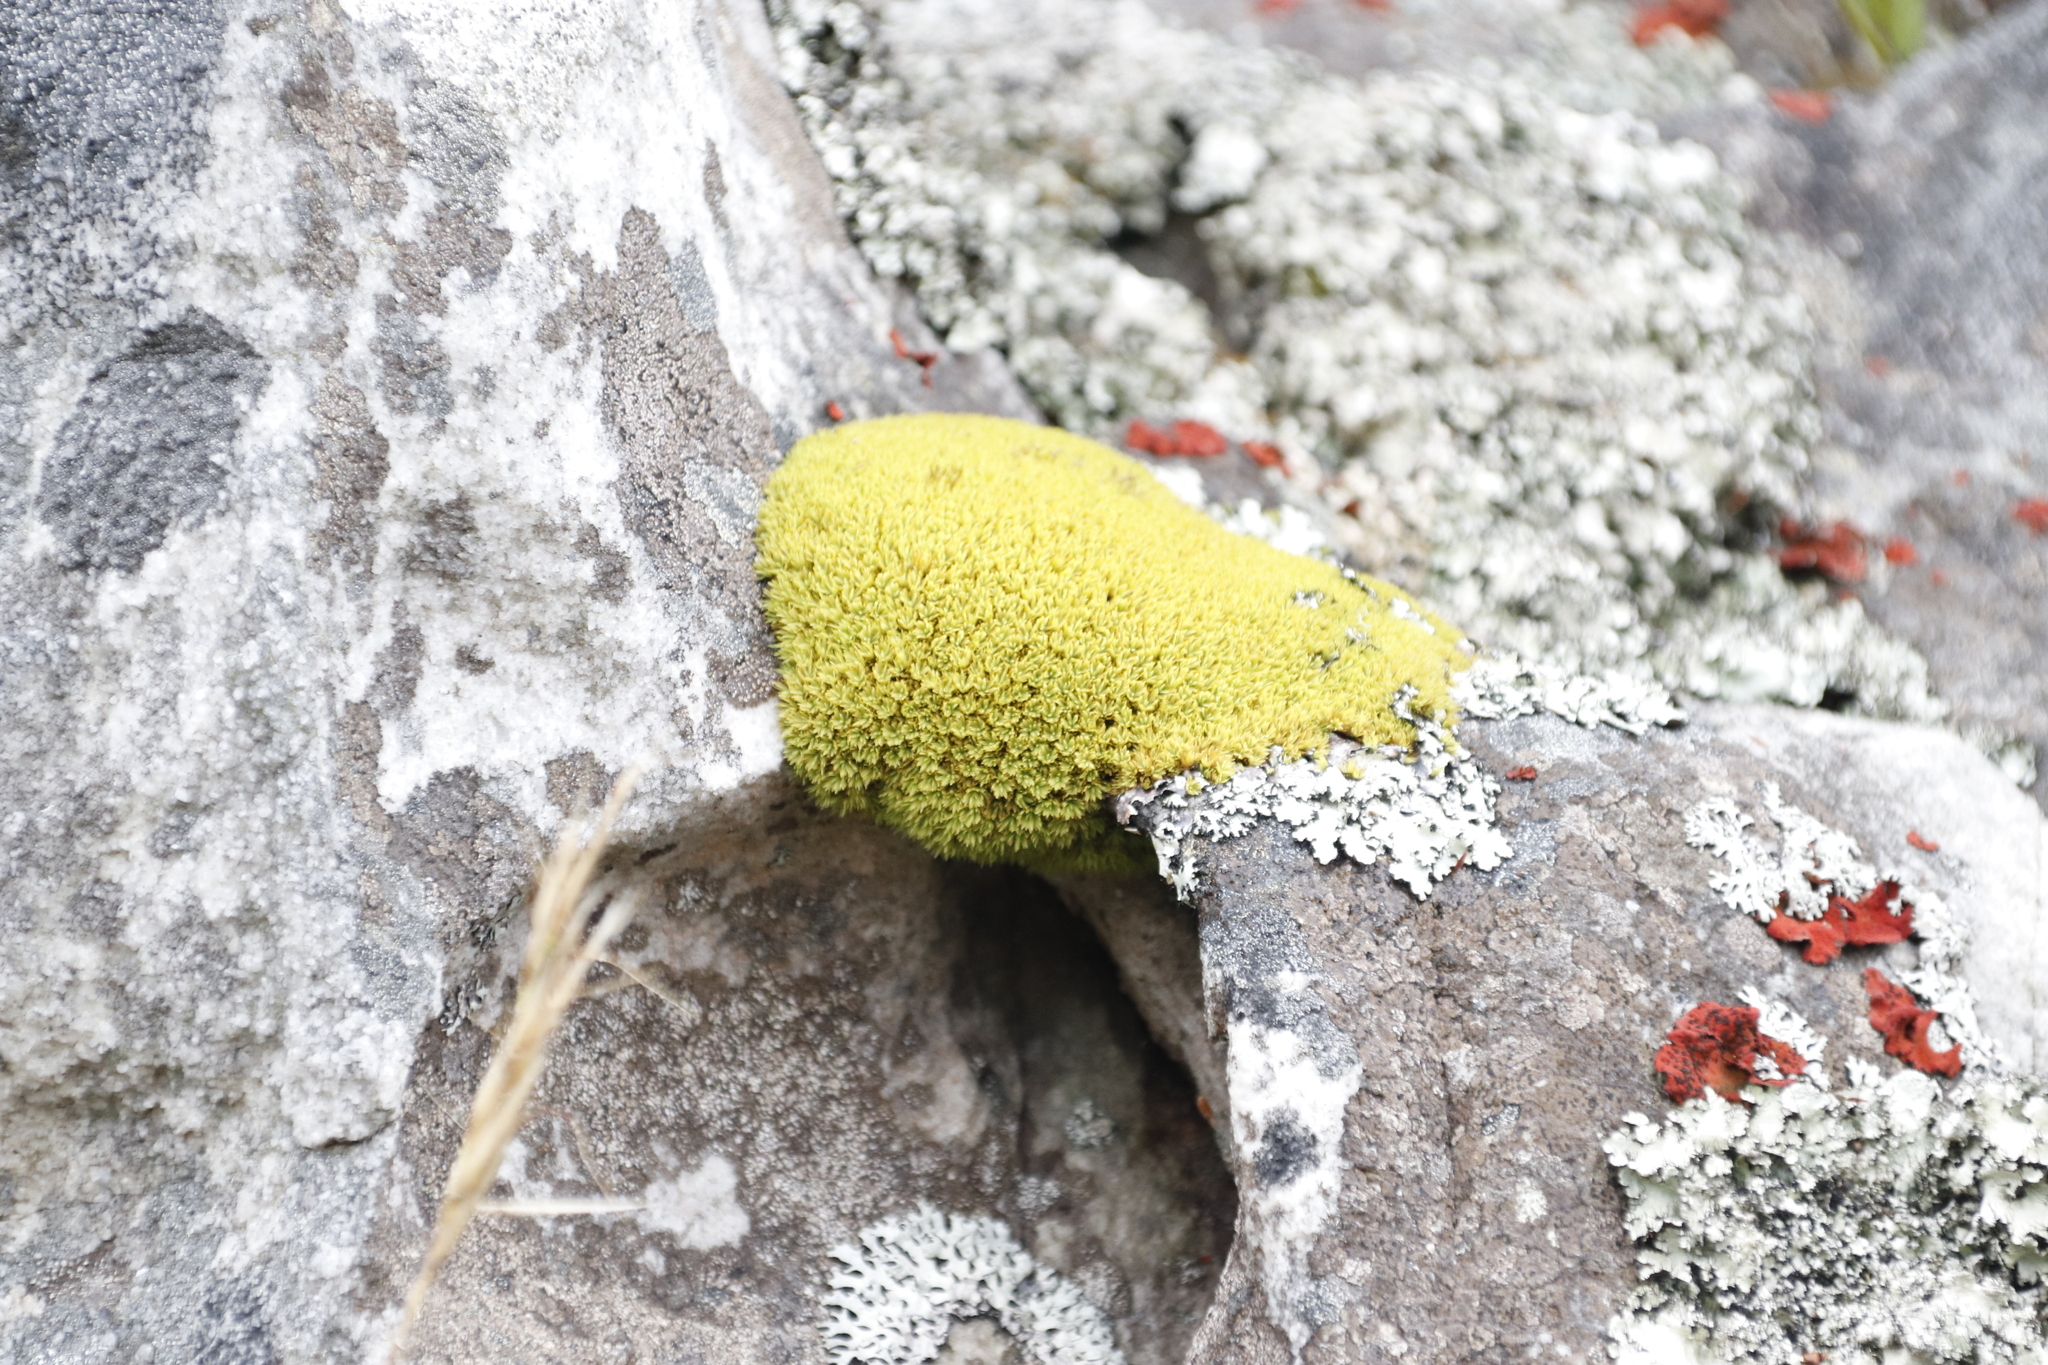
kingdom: Plantae
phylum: Bryophyta
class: Bryopsida
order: Dicranales
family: Hypodontiaceae
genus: Hypodontium
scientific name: Hypodontium pomiforme
